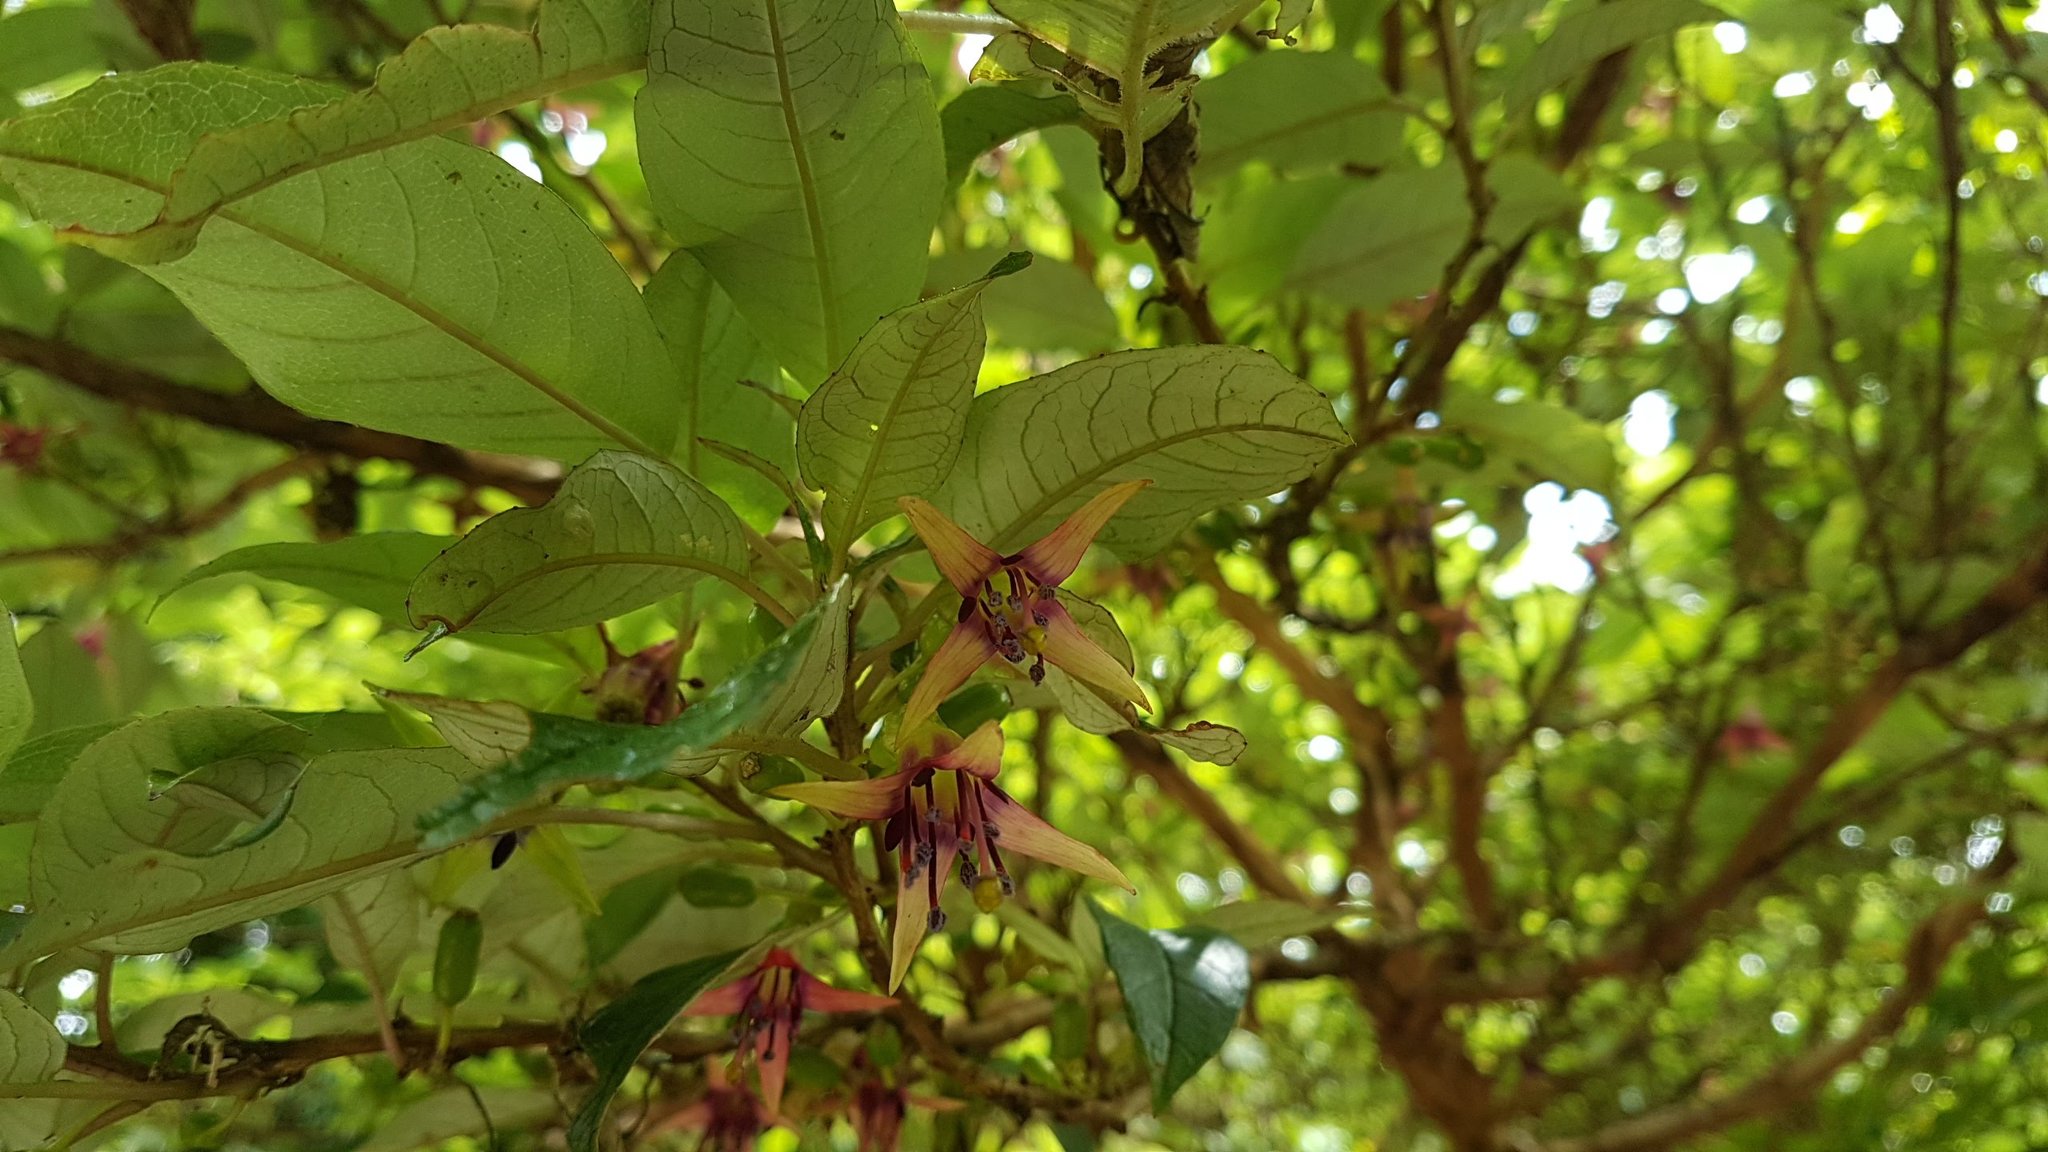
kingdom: Plantae
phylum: Tracheophyta
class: Magnoliopsida
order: Myrtales
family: Onagraceae
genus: Fuchsia
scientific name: Fuchsia excorticata
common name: Tree fuchsia
